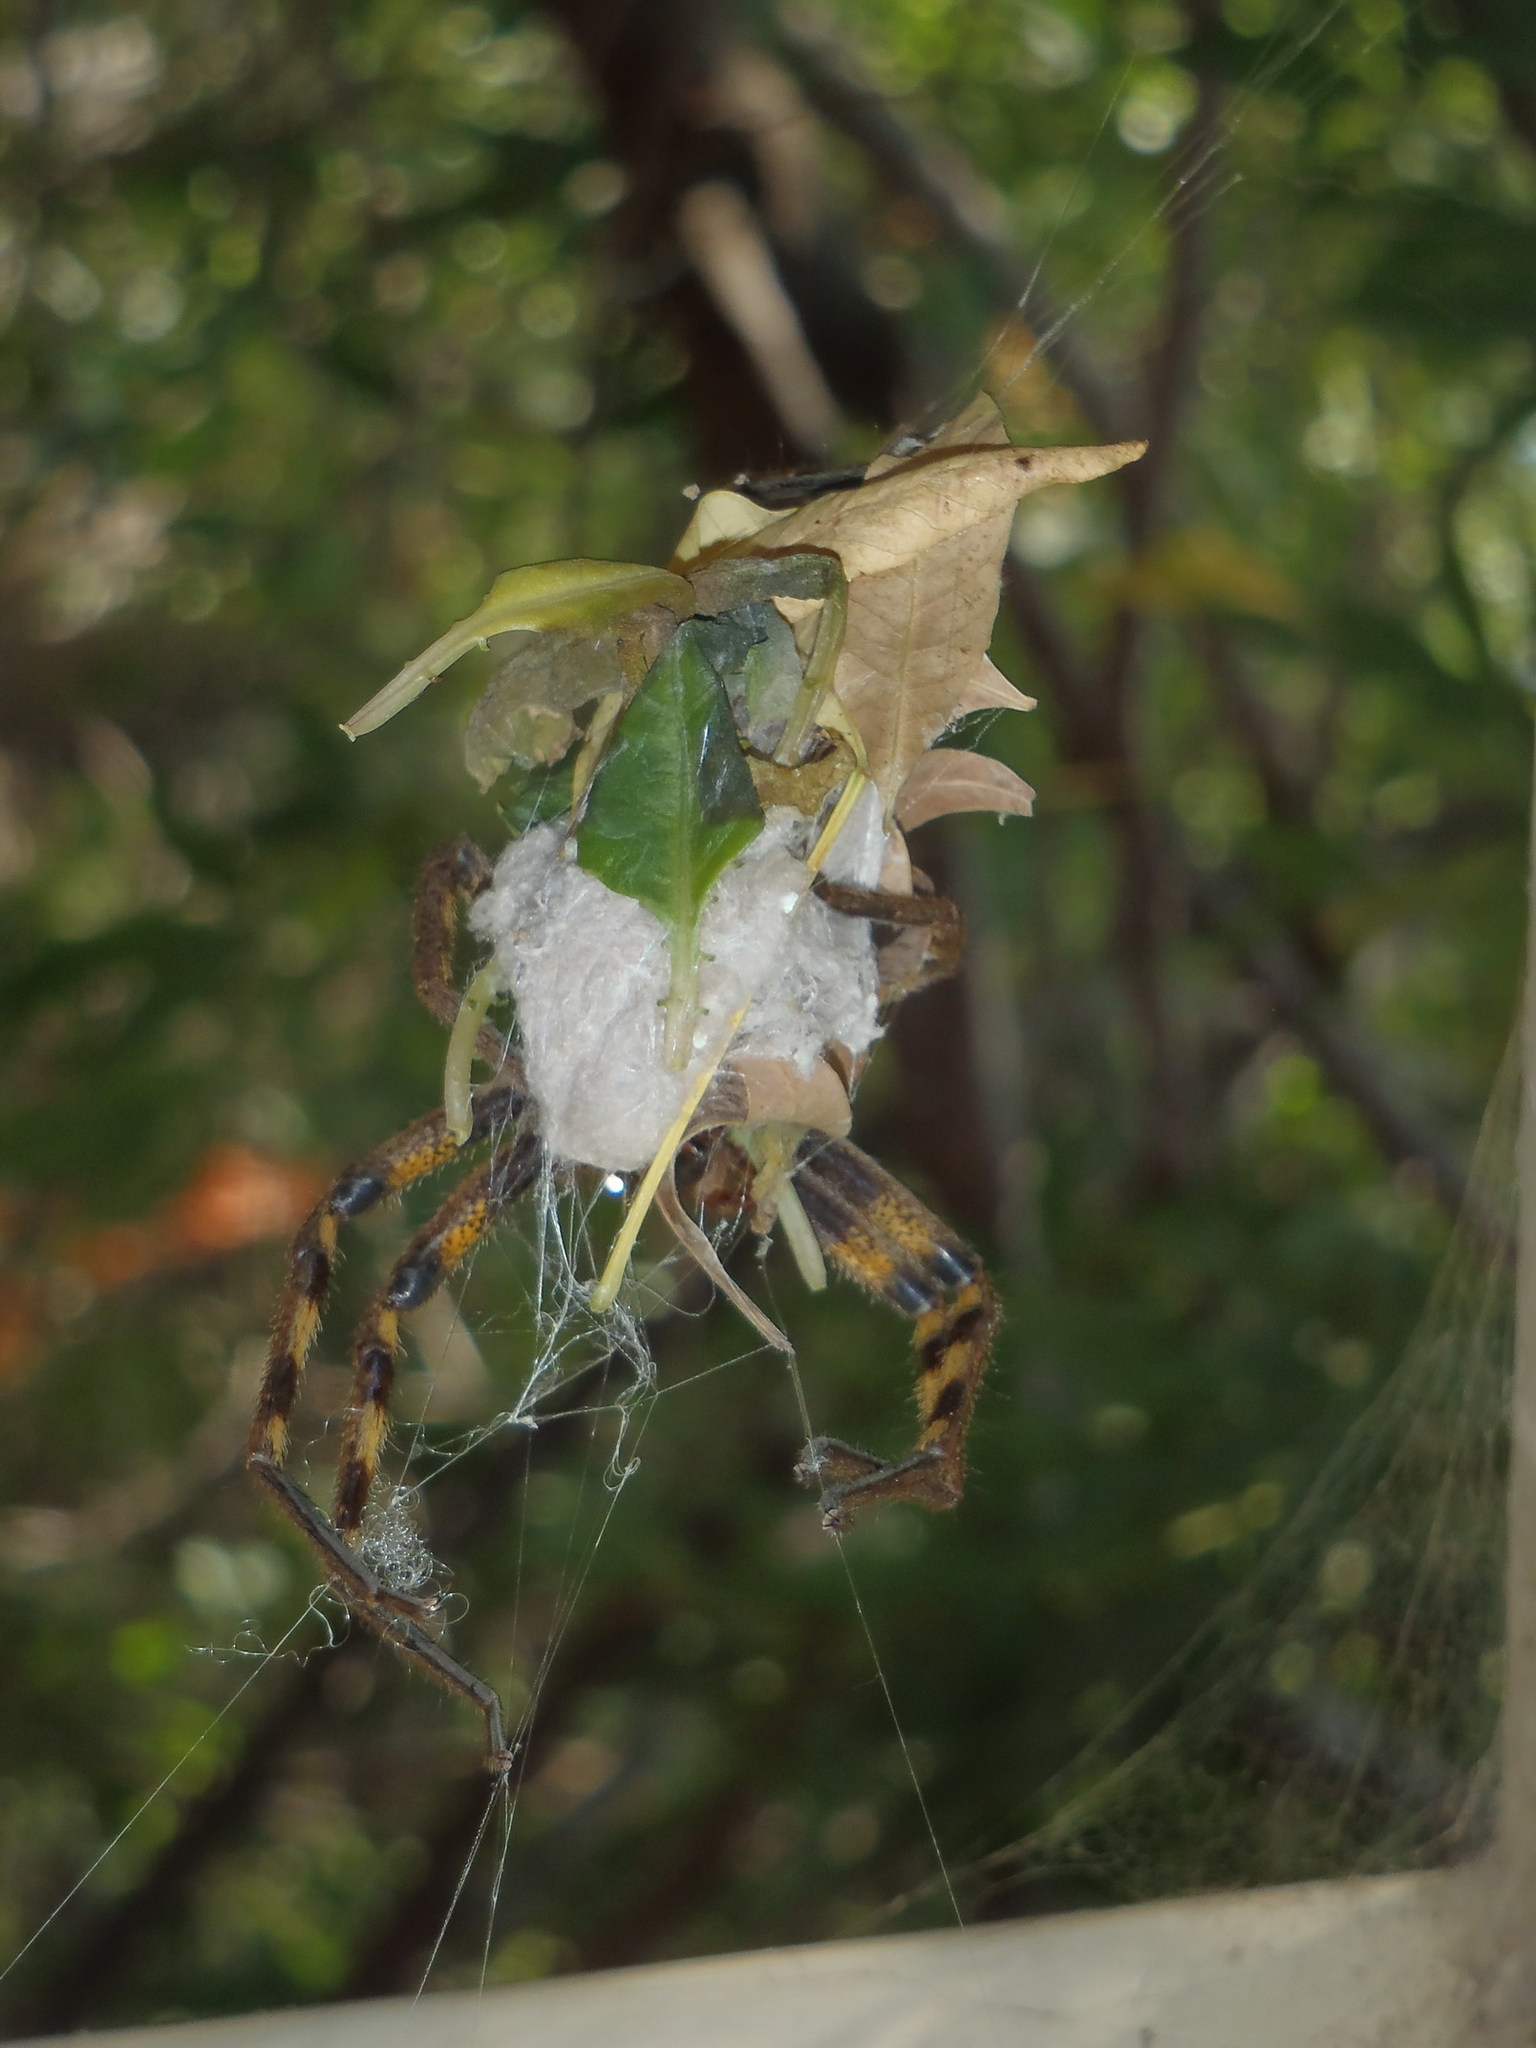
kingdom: Animalia
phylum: Arthropoda
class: Arachnida
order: Araneae
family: Sparassidae
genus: Palystes
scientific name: Palystes superciliosus
